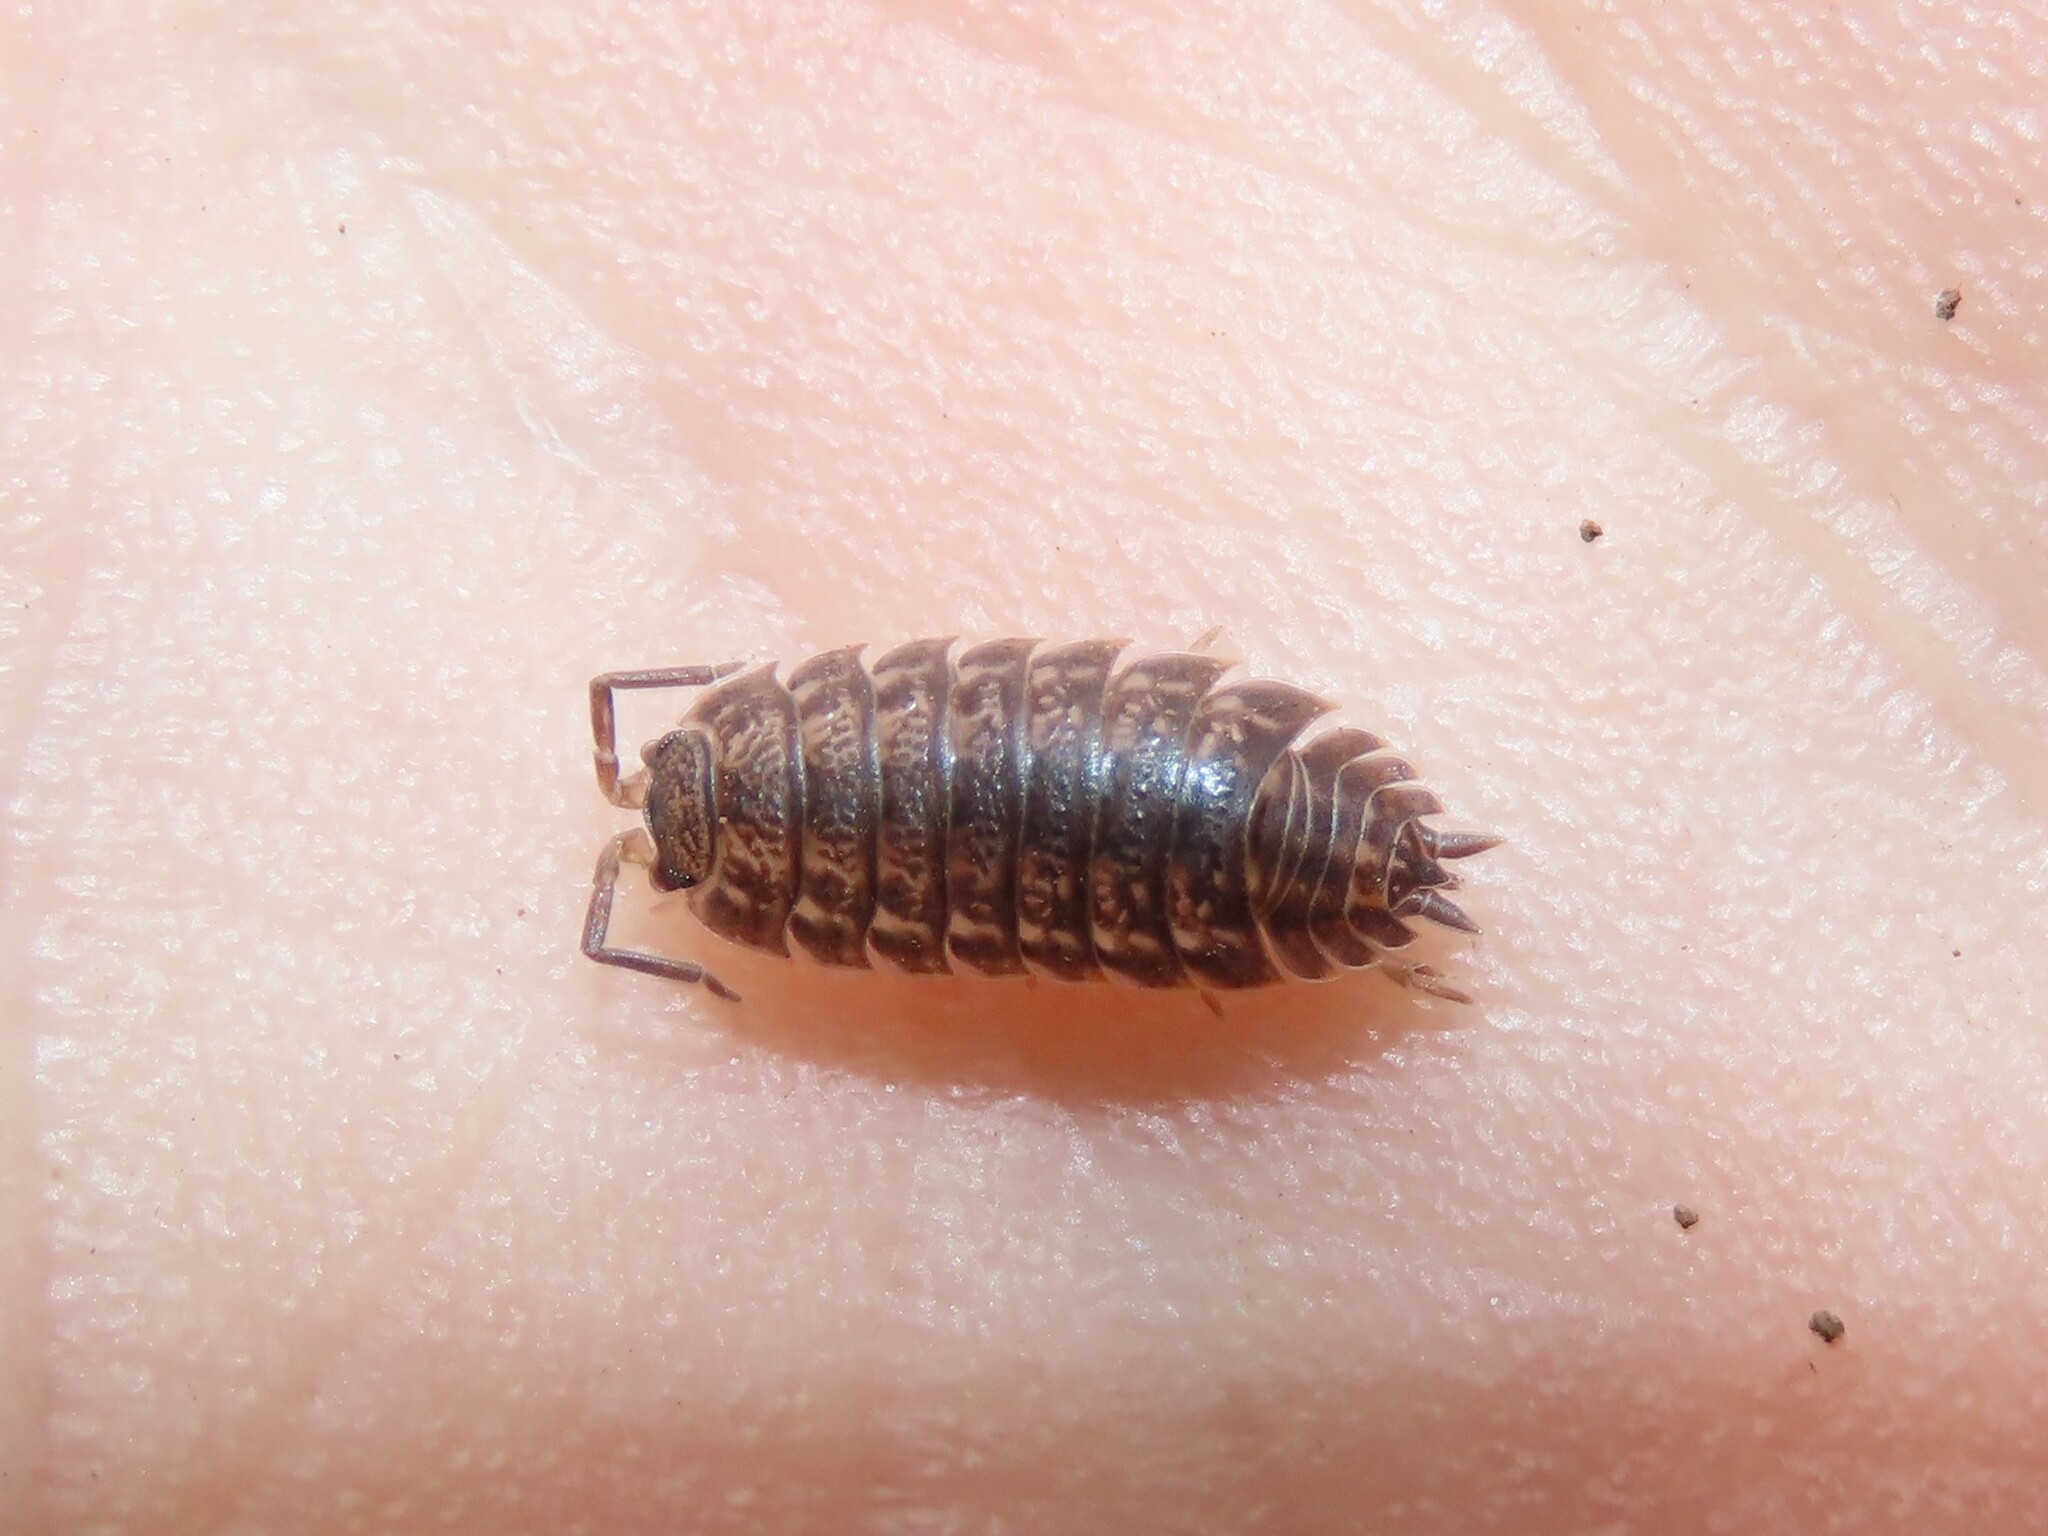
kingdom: Animalia
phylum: Arthropoda
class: Malacostraca
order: Isopoda
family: Trachelipodidae
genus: Trachelipus
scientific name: Trachelipus rathkii
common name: Isopod
